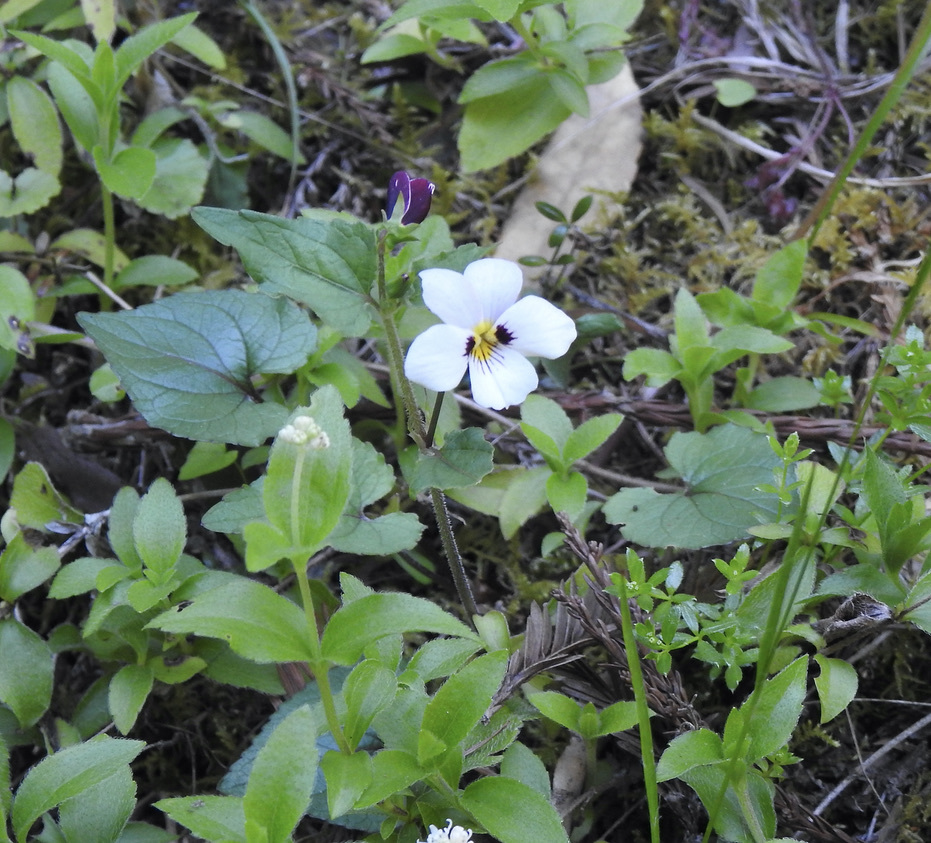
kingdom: Plantae
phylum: Tracheophyta
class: Magnoliopsida
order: Malpighiales
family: Violaceae
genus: Viola
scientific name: Viola ocellata
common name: Western heart's ease
